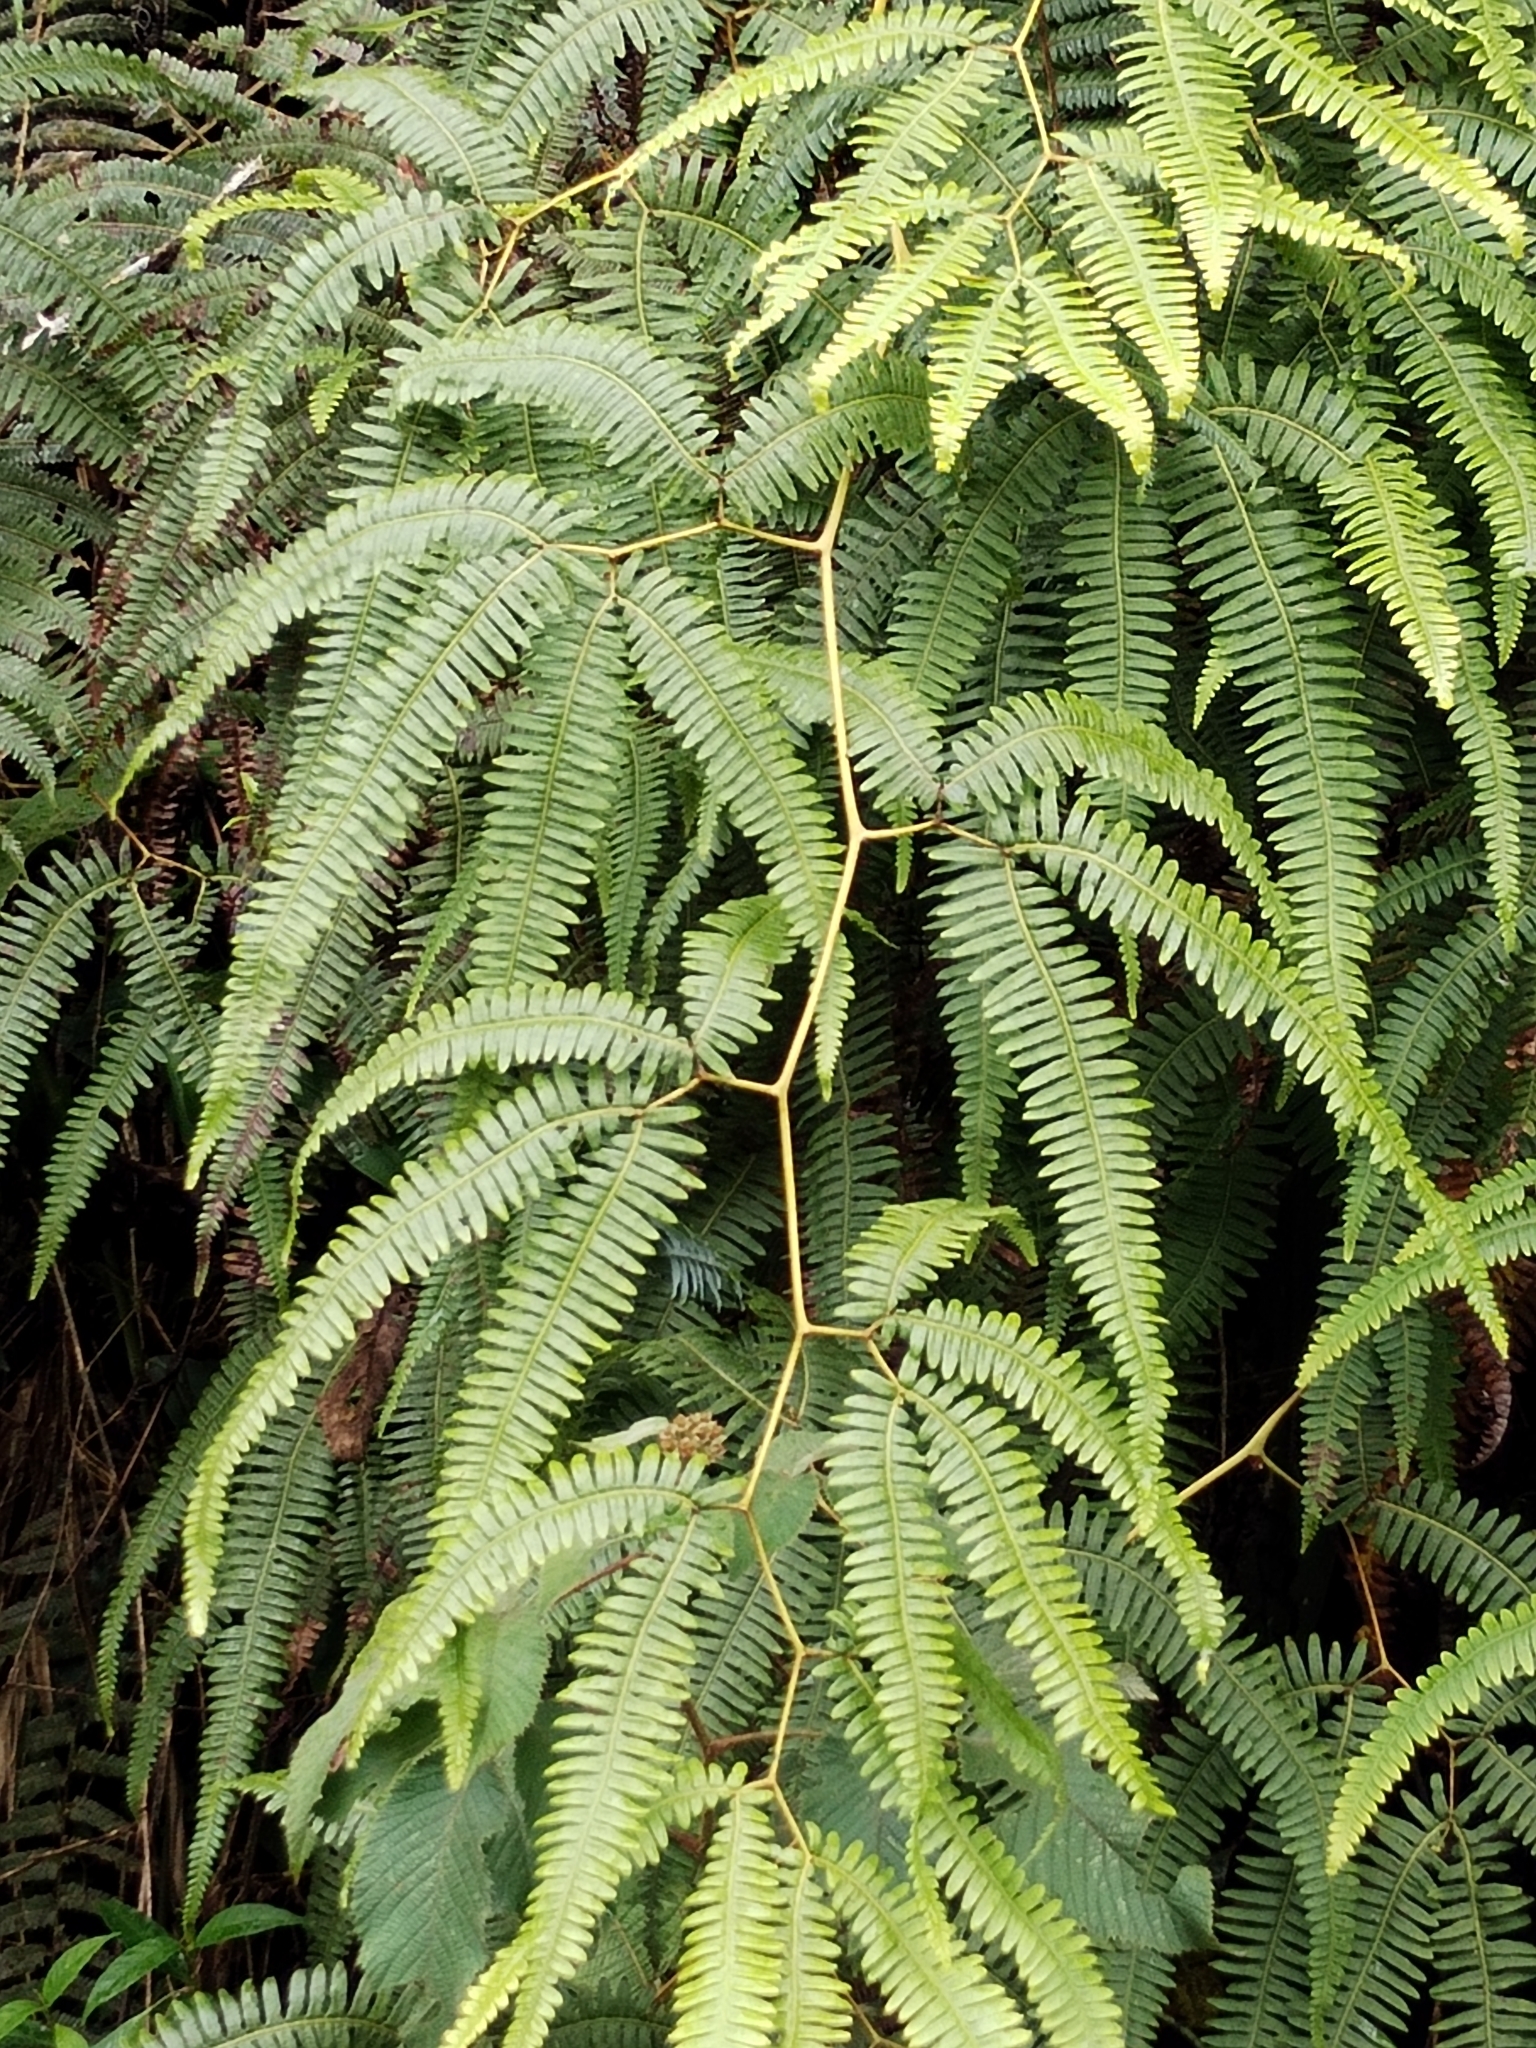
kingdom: Plantae
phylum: Tracheophyta
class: Polypodiopsida
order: Gleicheniales
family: Gleicheniaceae
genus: Gleichenella
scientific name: Gleichenella pectinata
